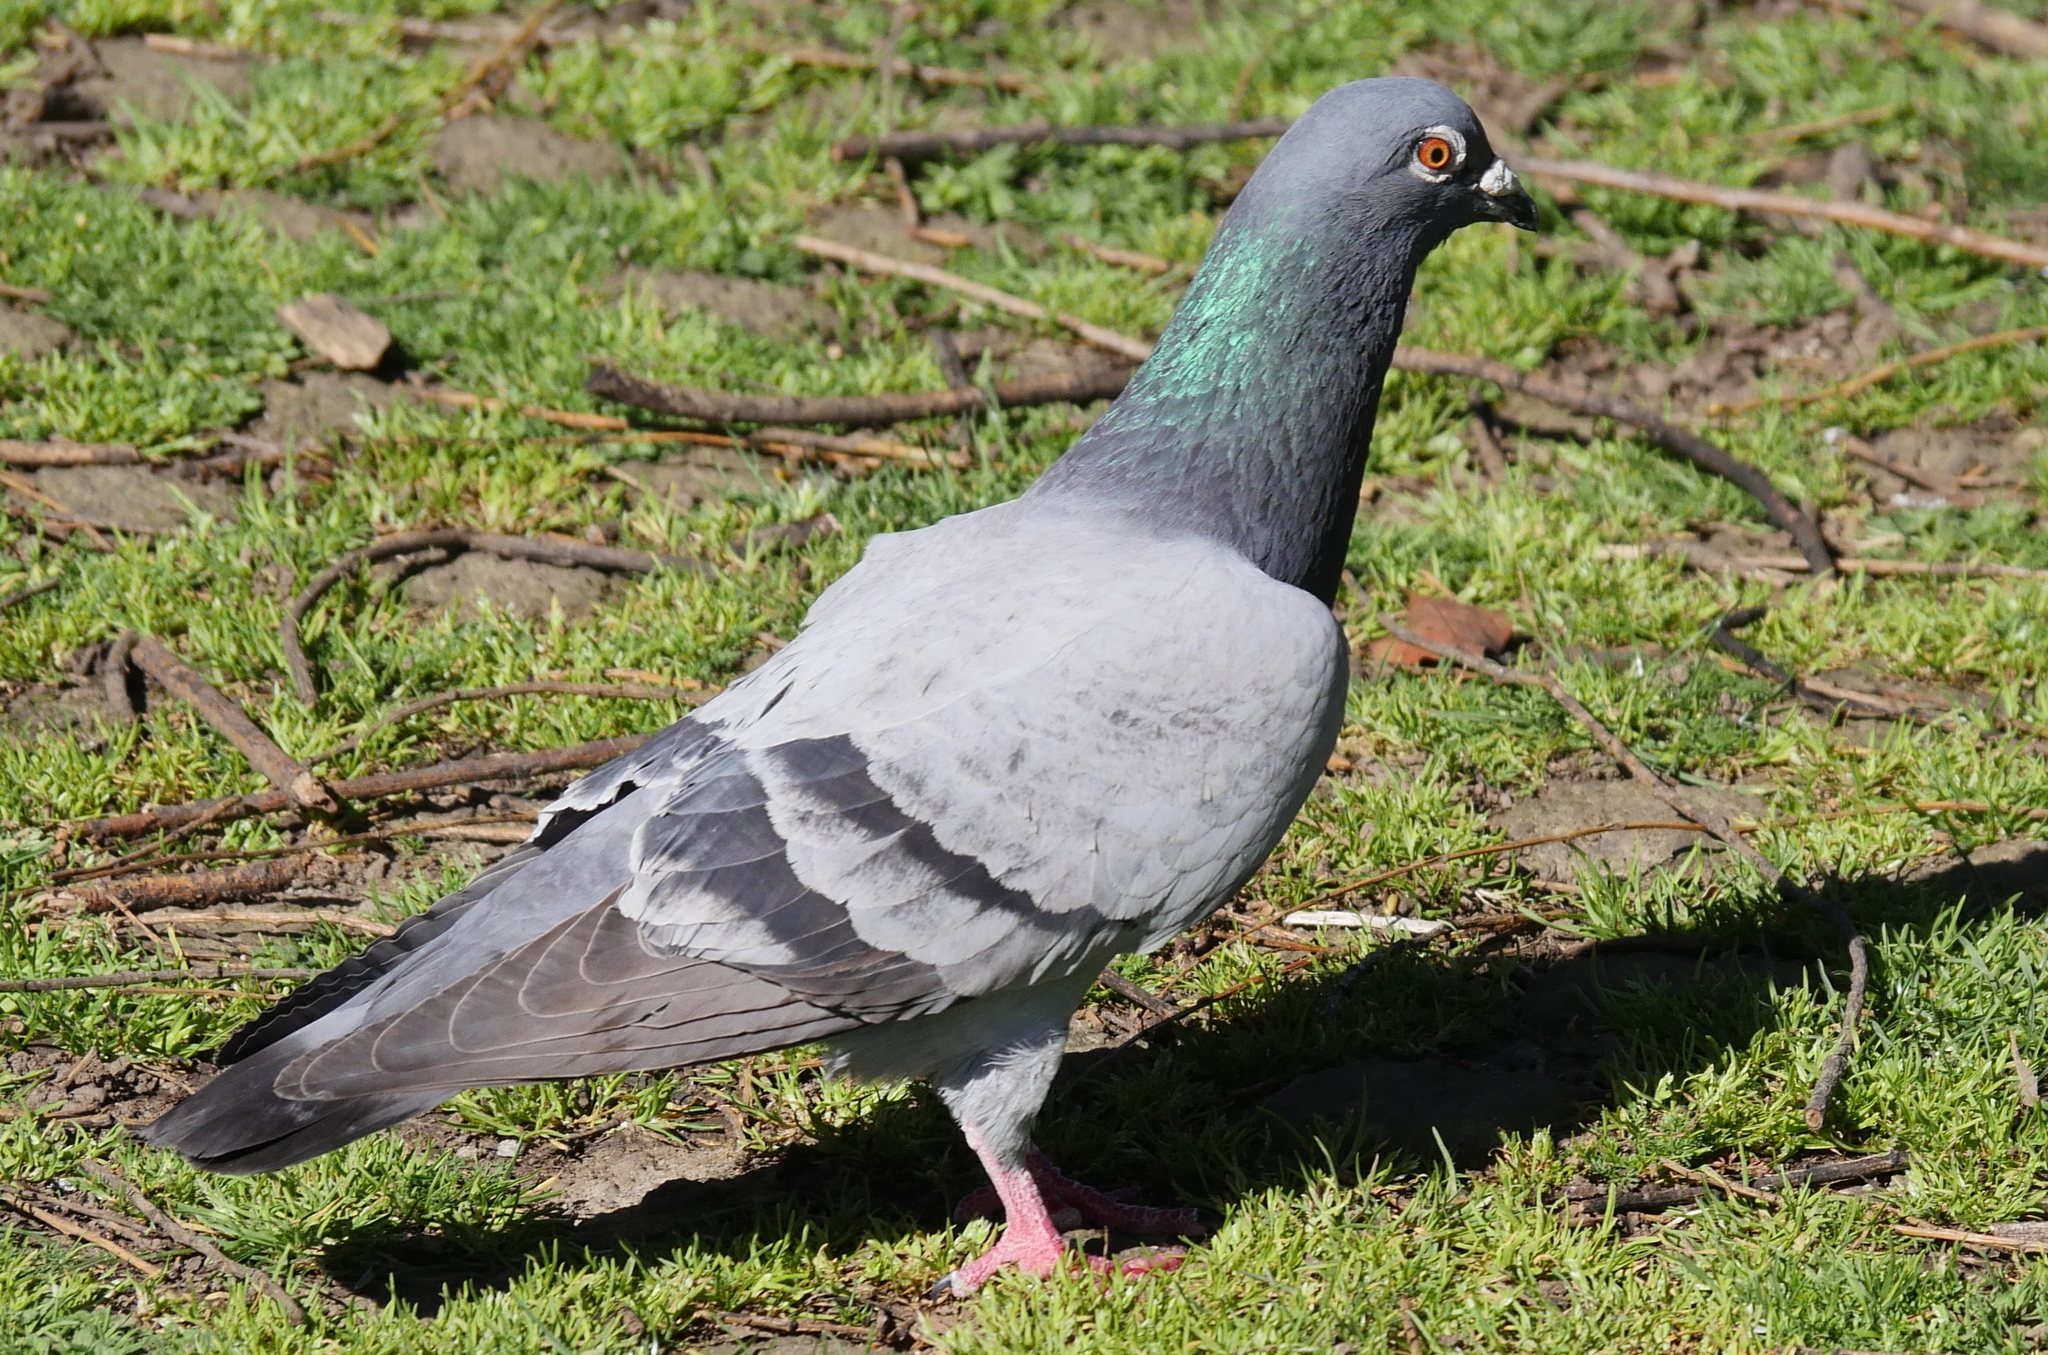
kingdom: Animalia
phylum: Chordata
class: Aves
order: Columbiformes
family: Columbidae
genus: Columba
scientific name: Columba livia
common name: Rock pigeon
